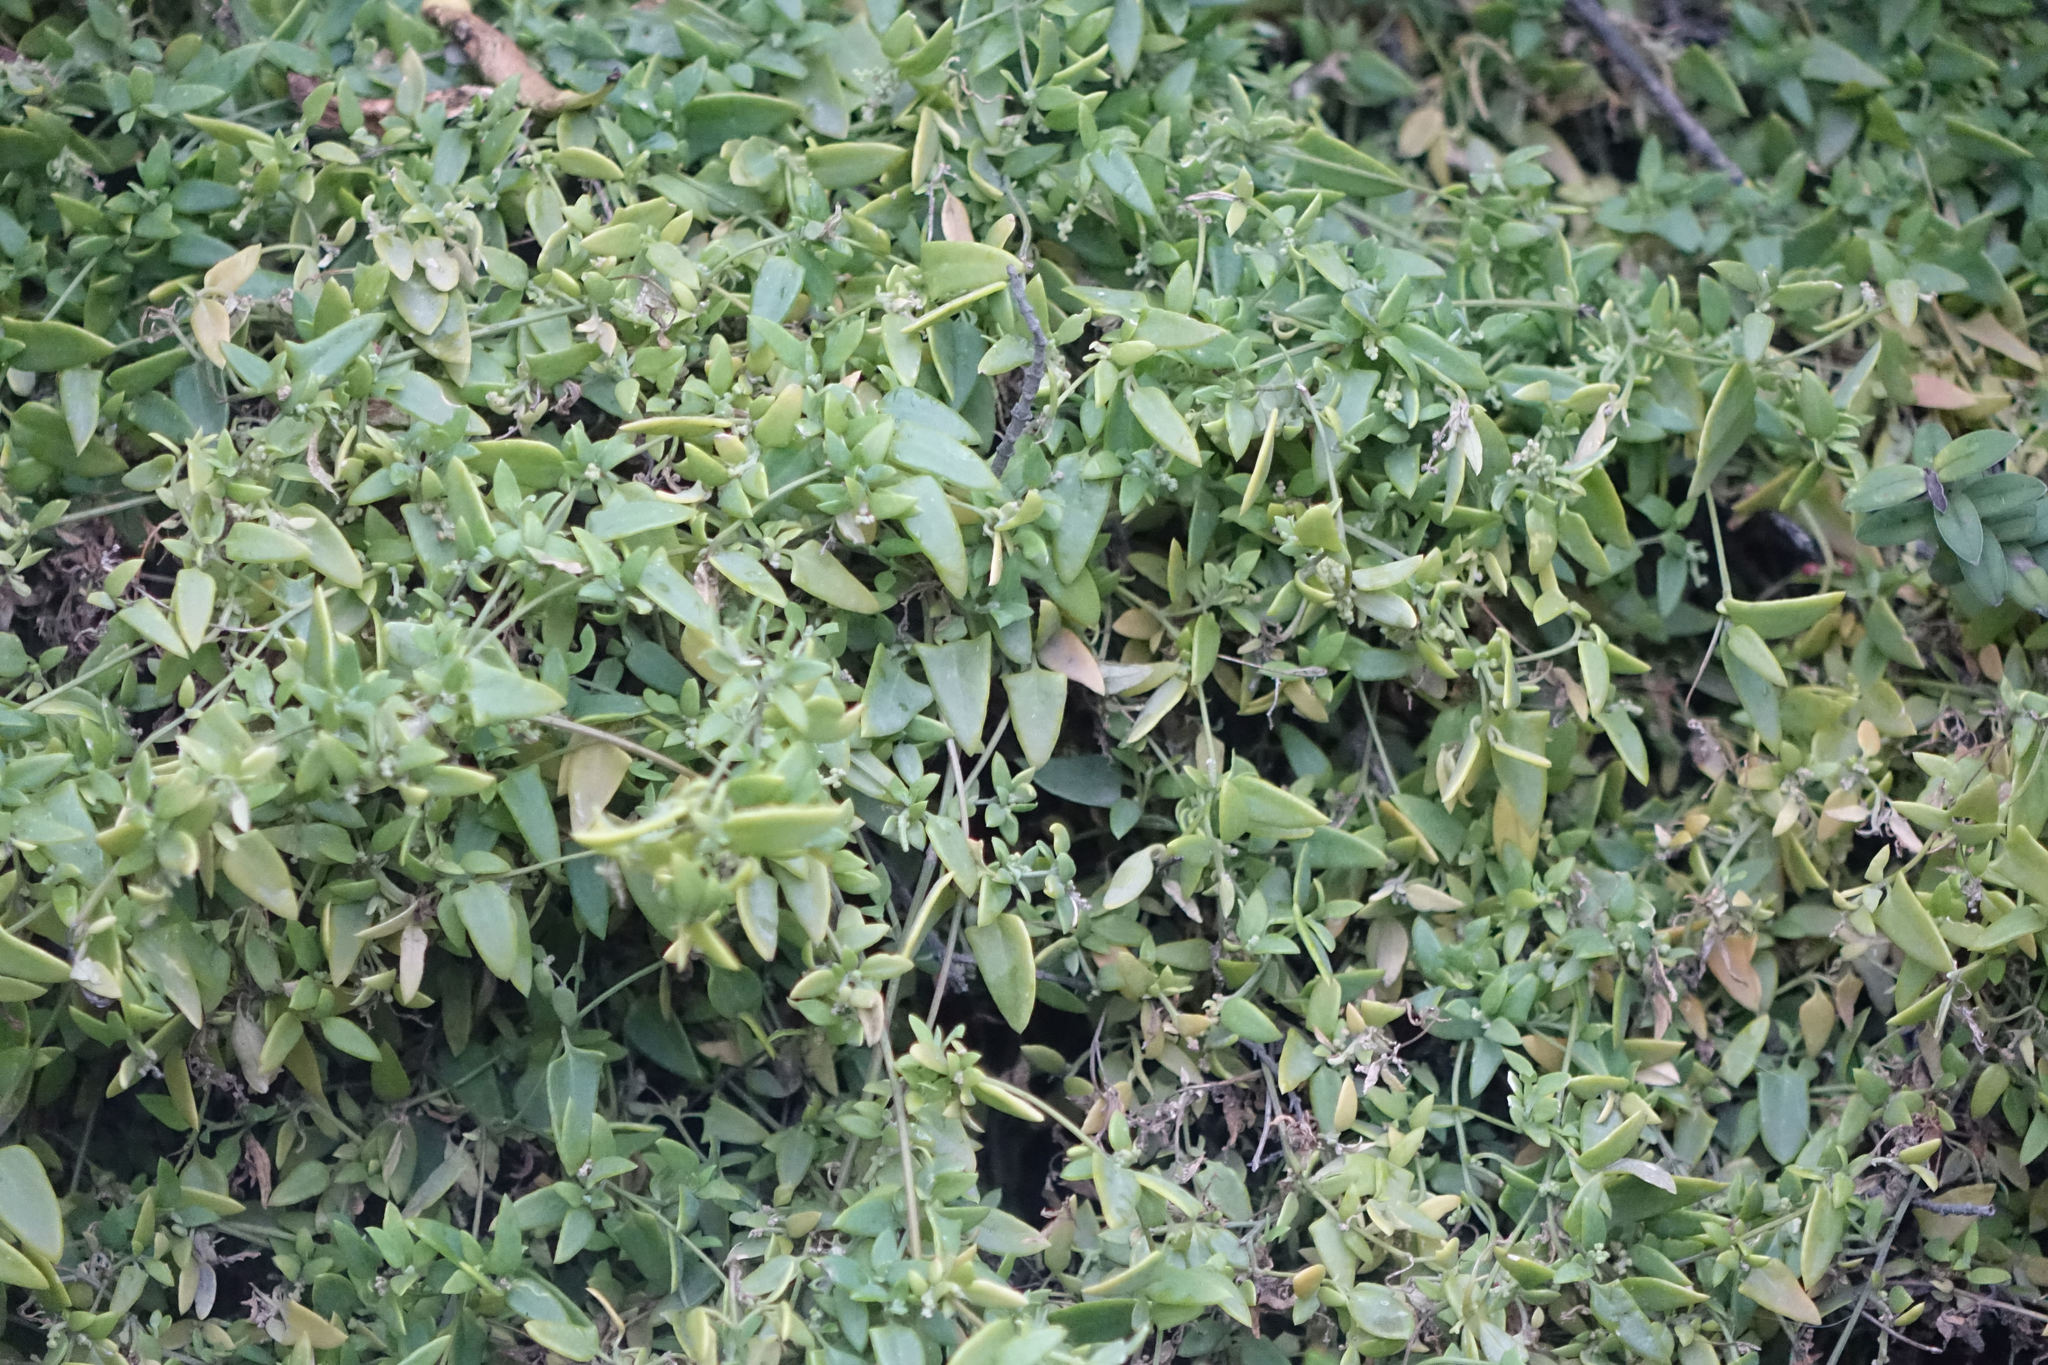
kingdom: Plantae
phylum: Tracheophyta
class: Magnoliopsida
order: Caryophyllales
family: Amaranthaceae
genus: Chenopodium
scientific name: Chenopodium nutans
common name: Climbing-saltbush
